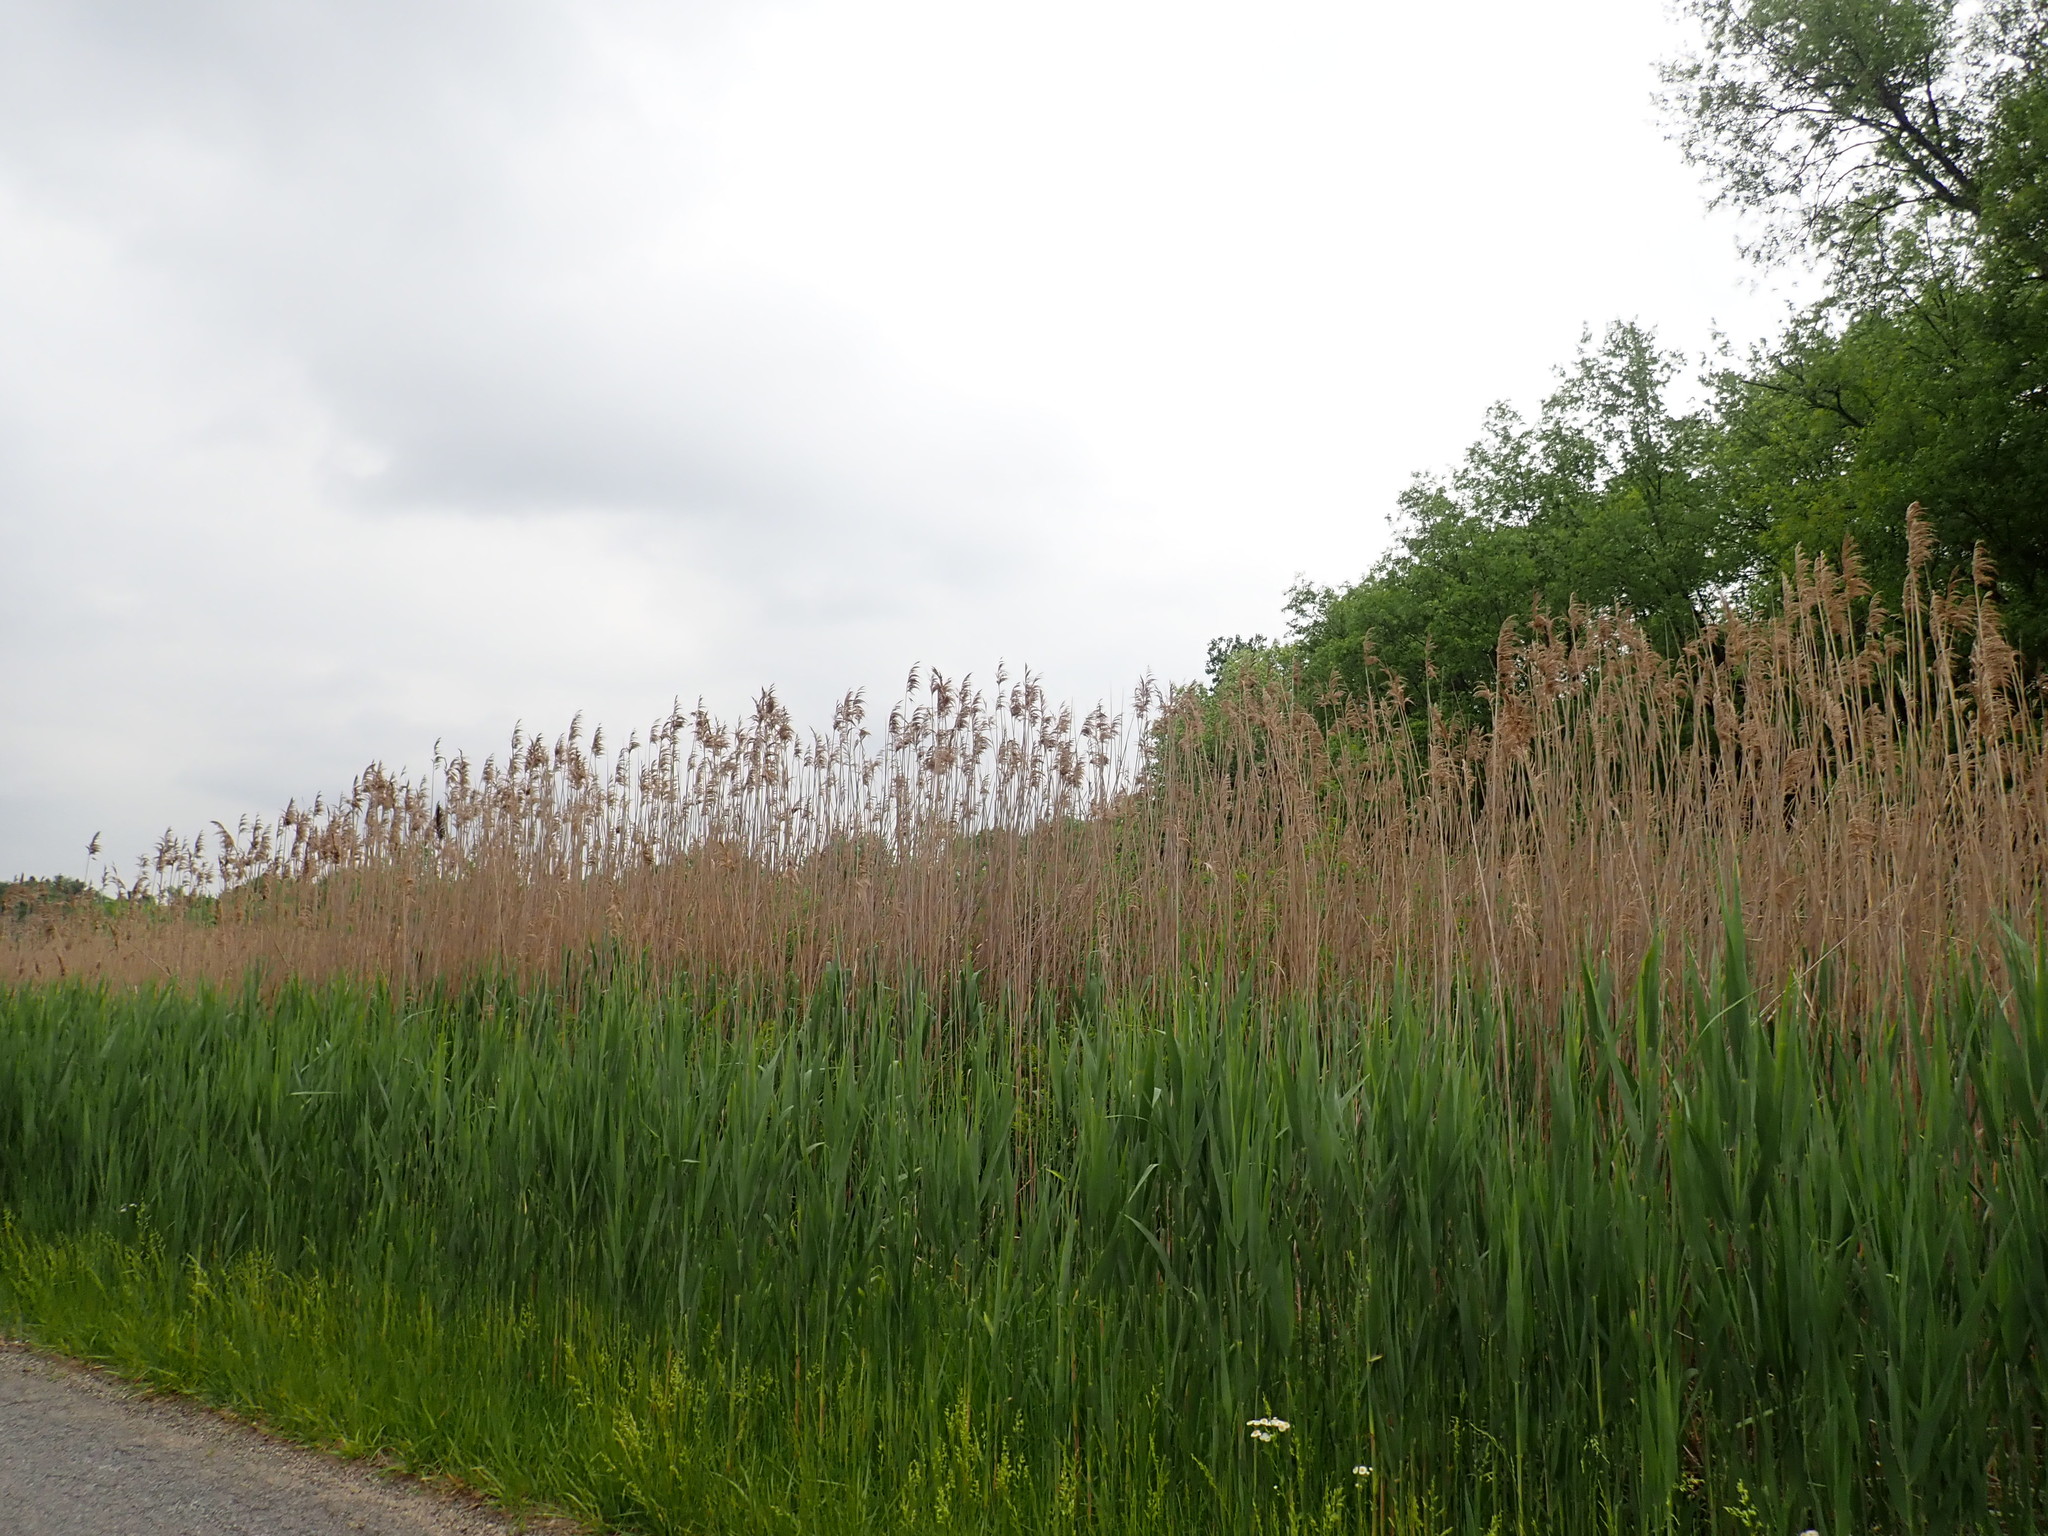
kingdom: Plantae
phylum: Tracheophyta
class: Liliopsida
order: Poales
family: Poaceae
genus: Phragmites
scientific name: Phragmites australis
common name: Common reed
